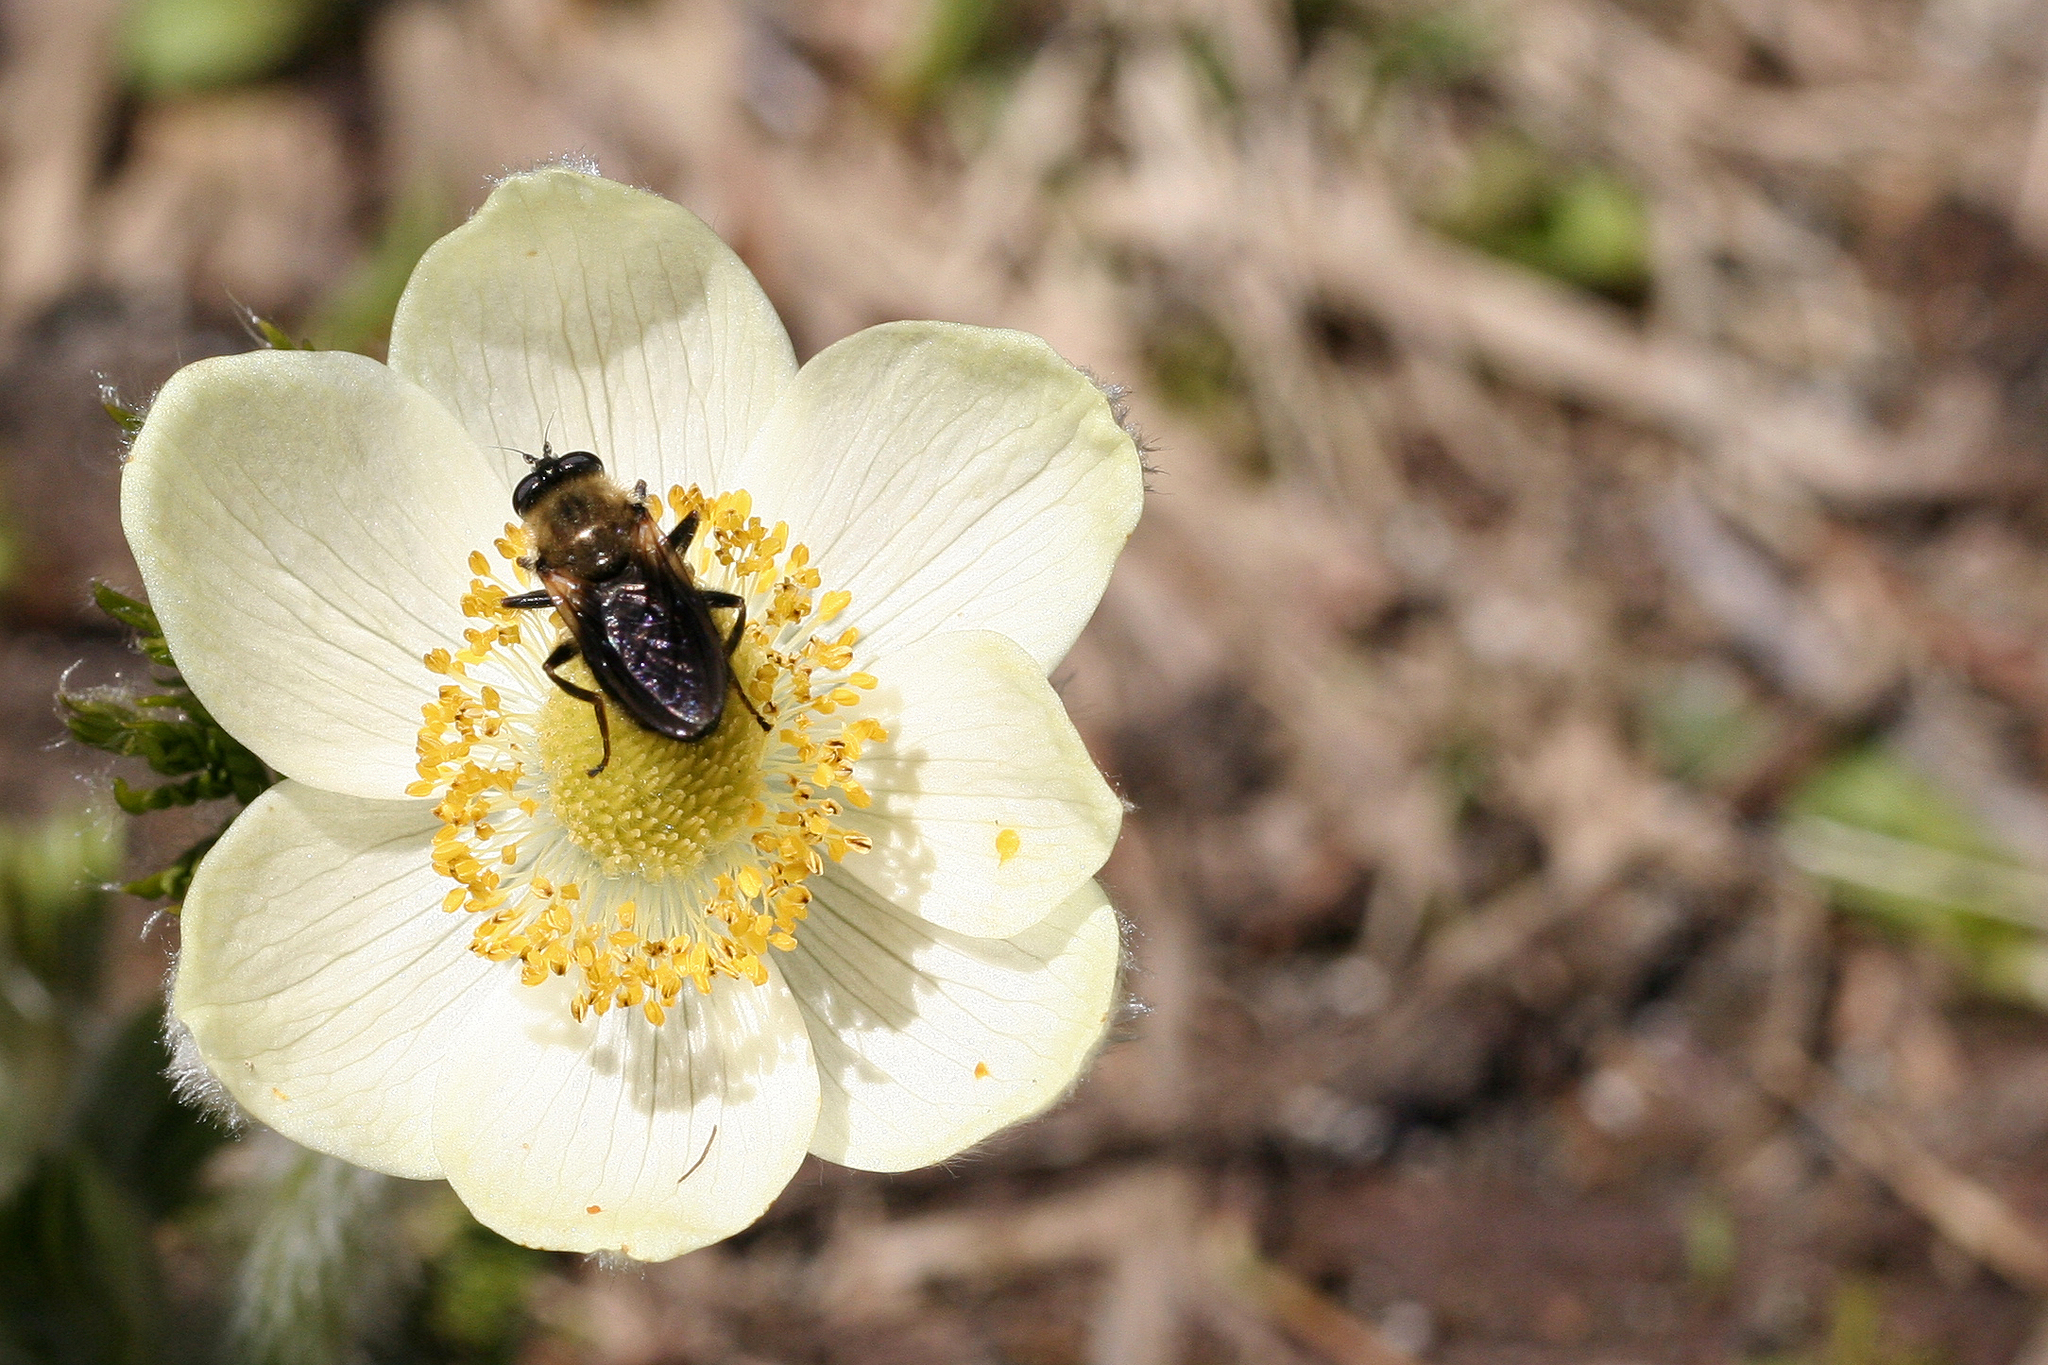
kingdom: Plantae
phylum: Tracheophyta
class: Magnoliopsida
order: Ranunculales
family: Ranunculaceae
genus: Pulsatilla
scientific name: Pulsatilla occidentalis
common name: Mountain pasqueflower
